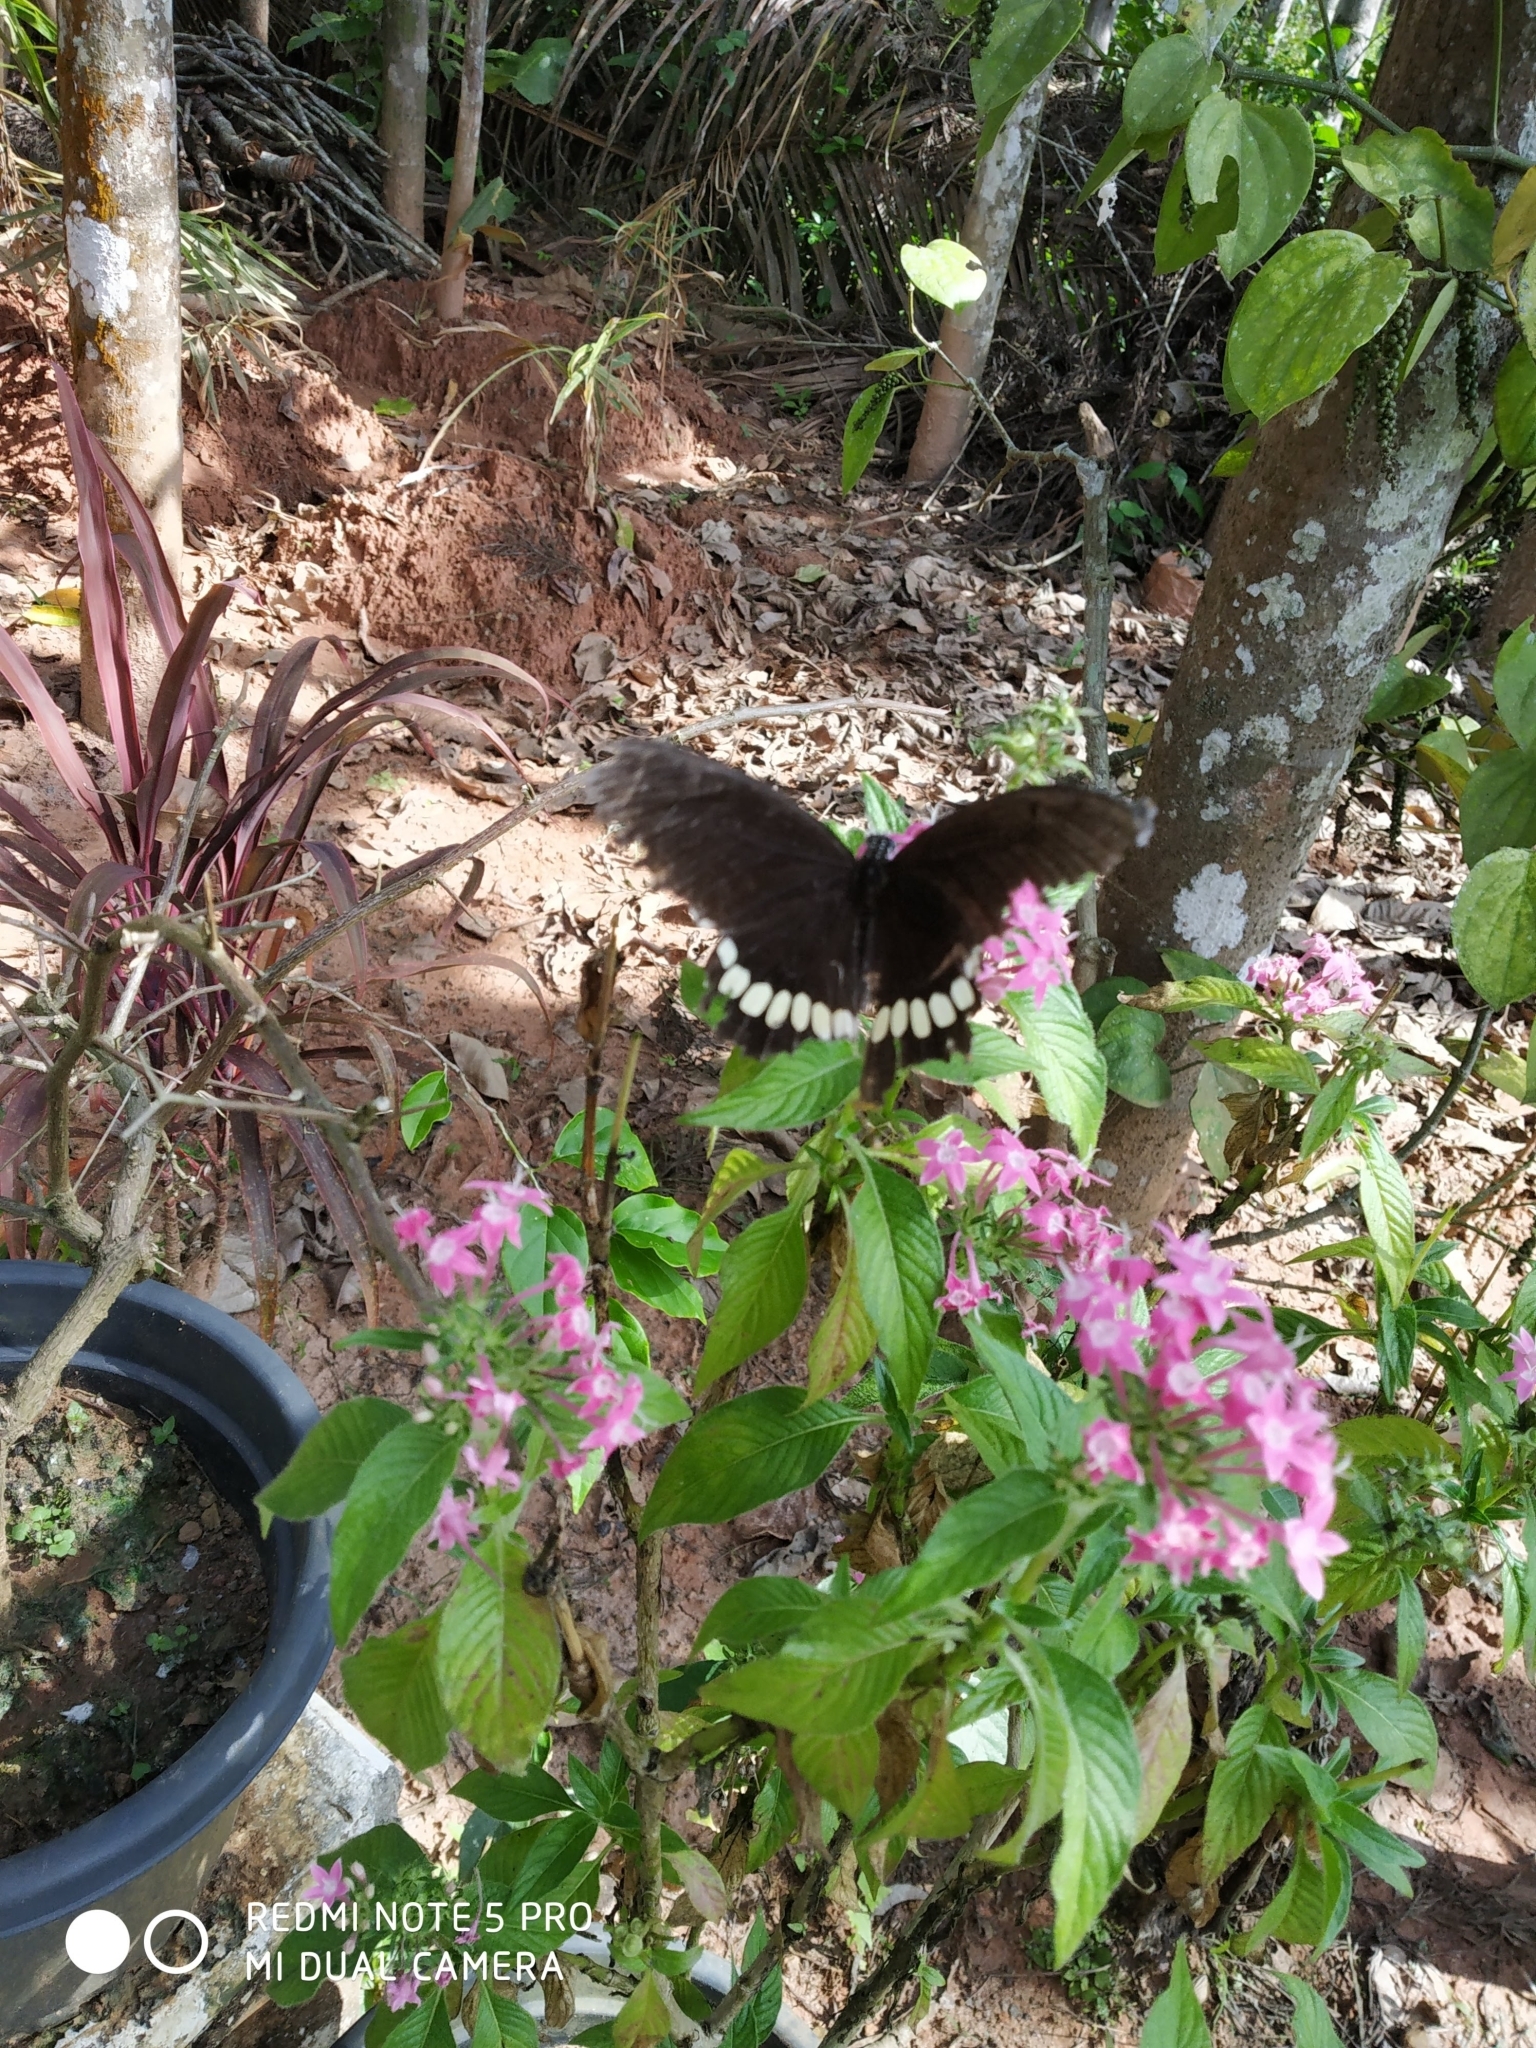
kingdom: Animalia
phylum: Arthropoda
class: Insecta
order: Lepidoptera
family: Papilionidae
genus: Papilio
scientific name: Papilio polytes
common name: Common mormon
